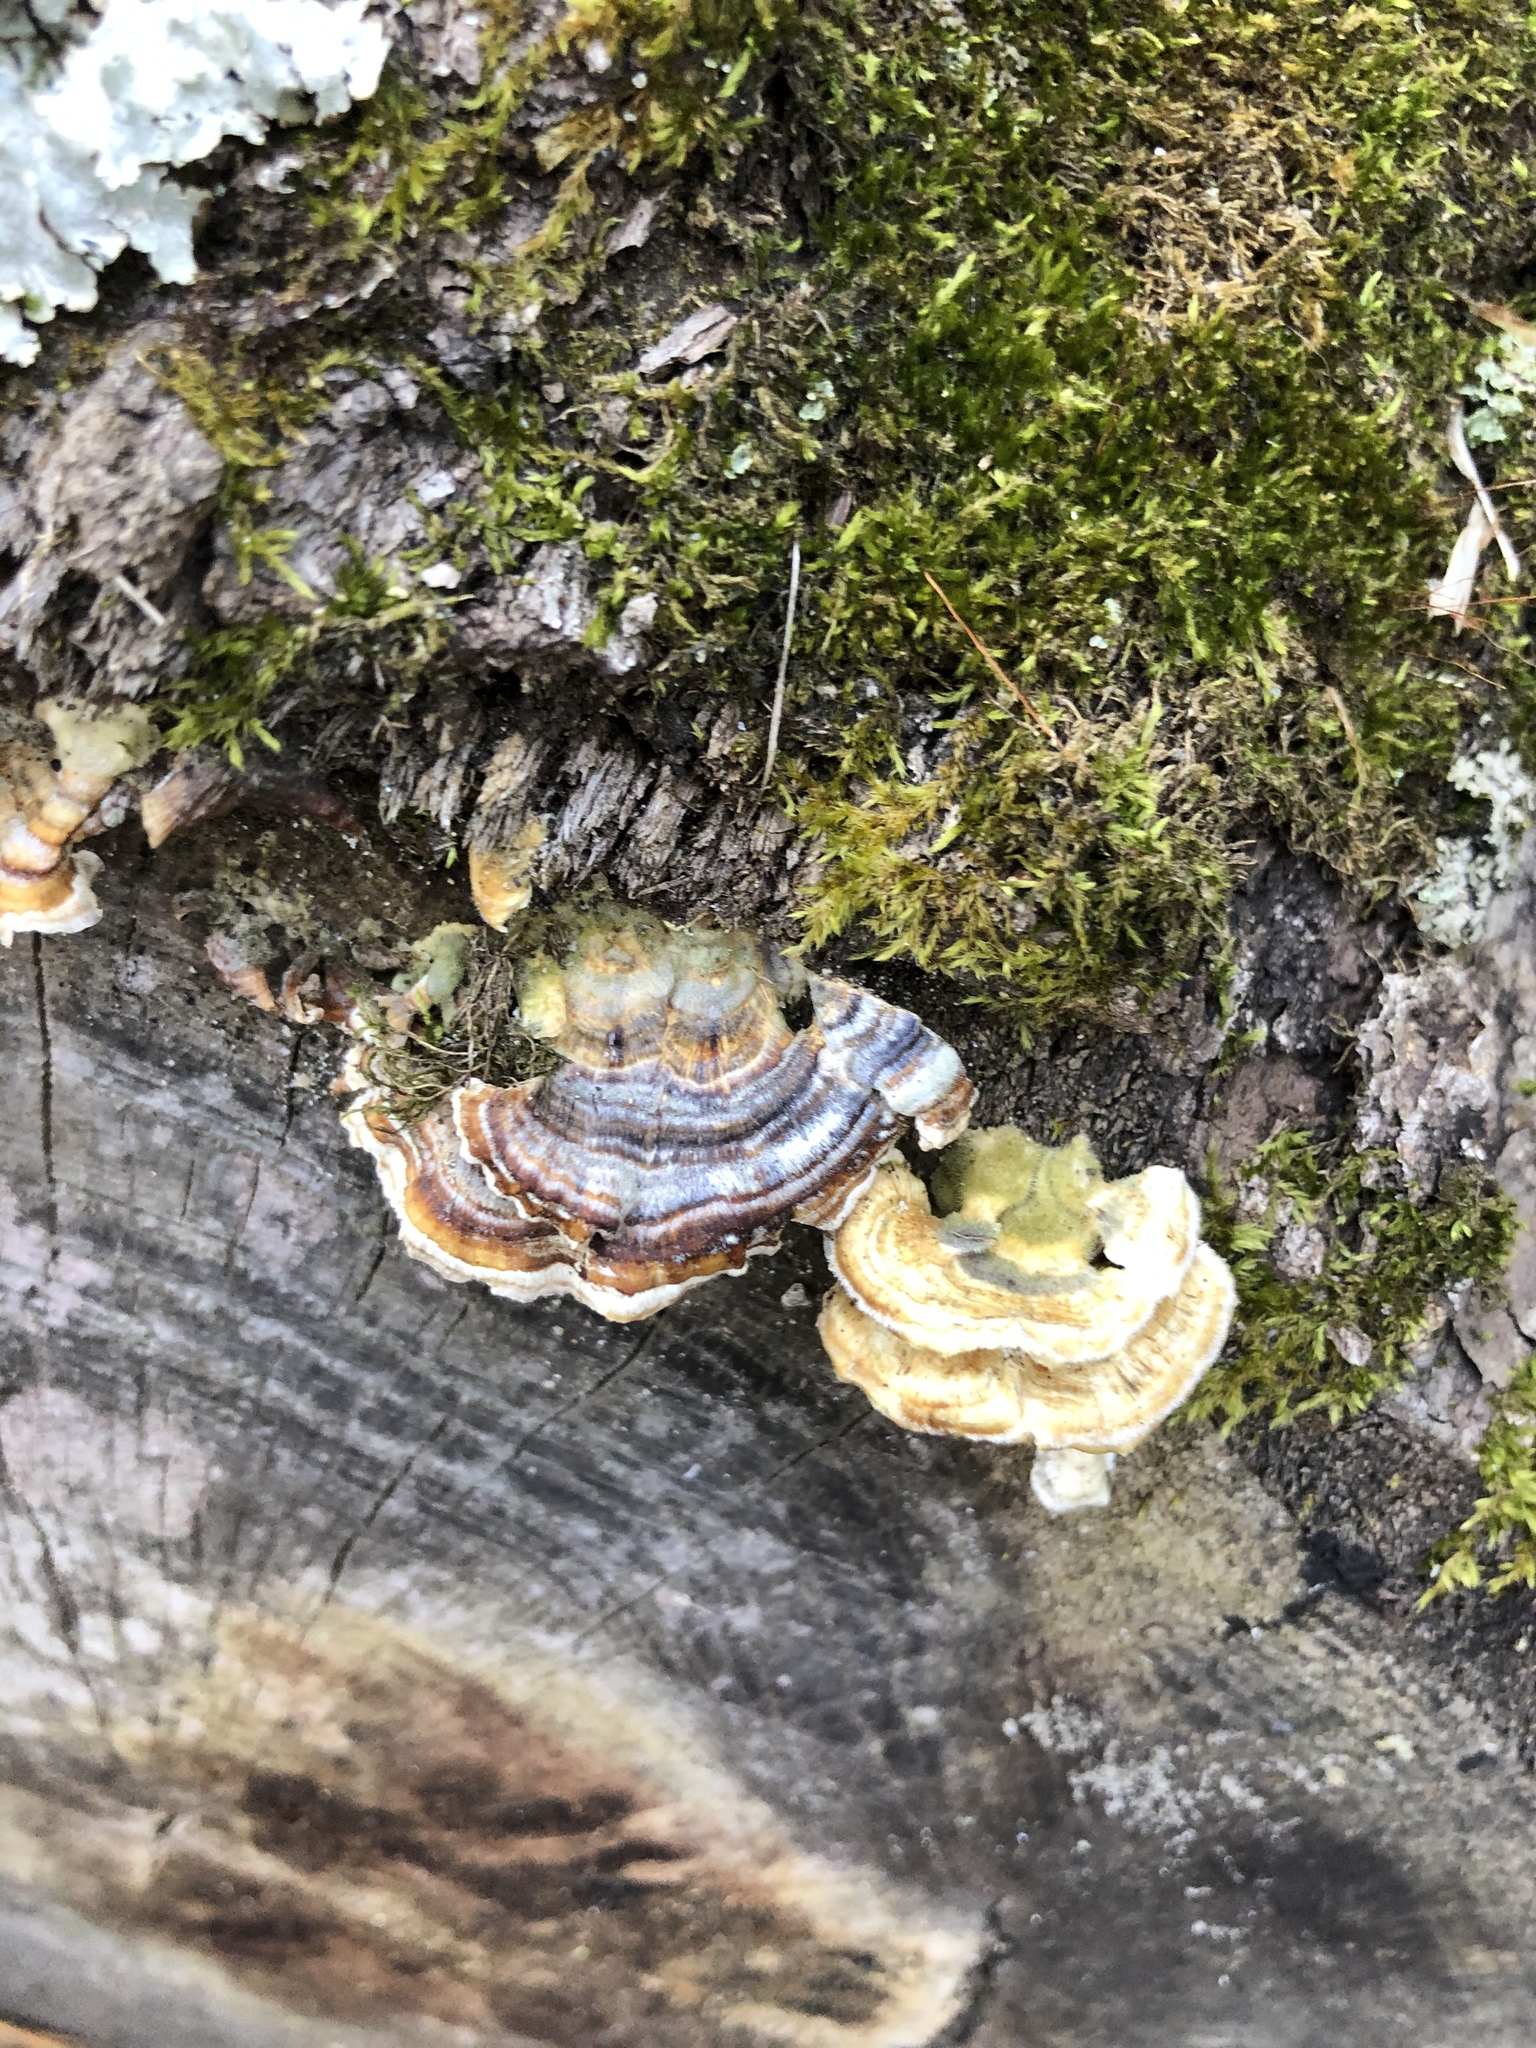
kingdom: Fungi
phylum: Basidiomycota
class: Agaricomycetes
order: Polyporales
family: Polyporaceae
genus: Trametes
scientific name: Trametes versicolor
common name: Turkeytail
